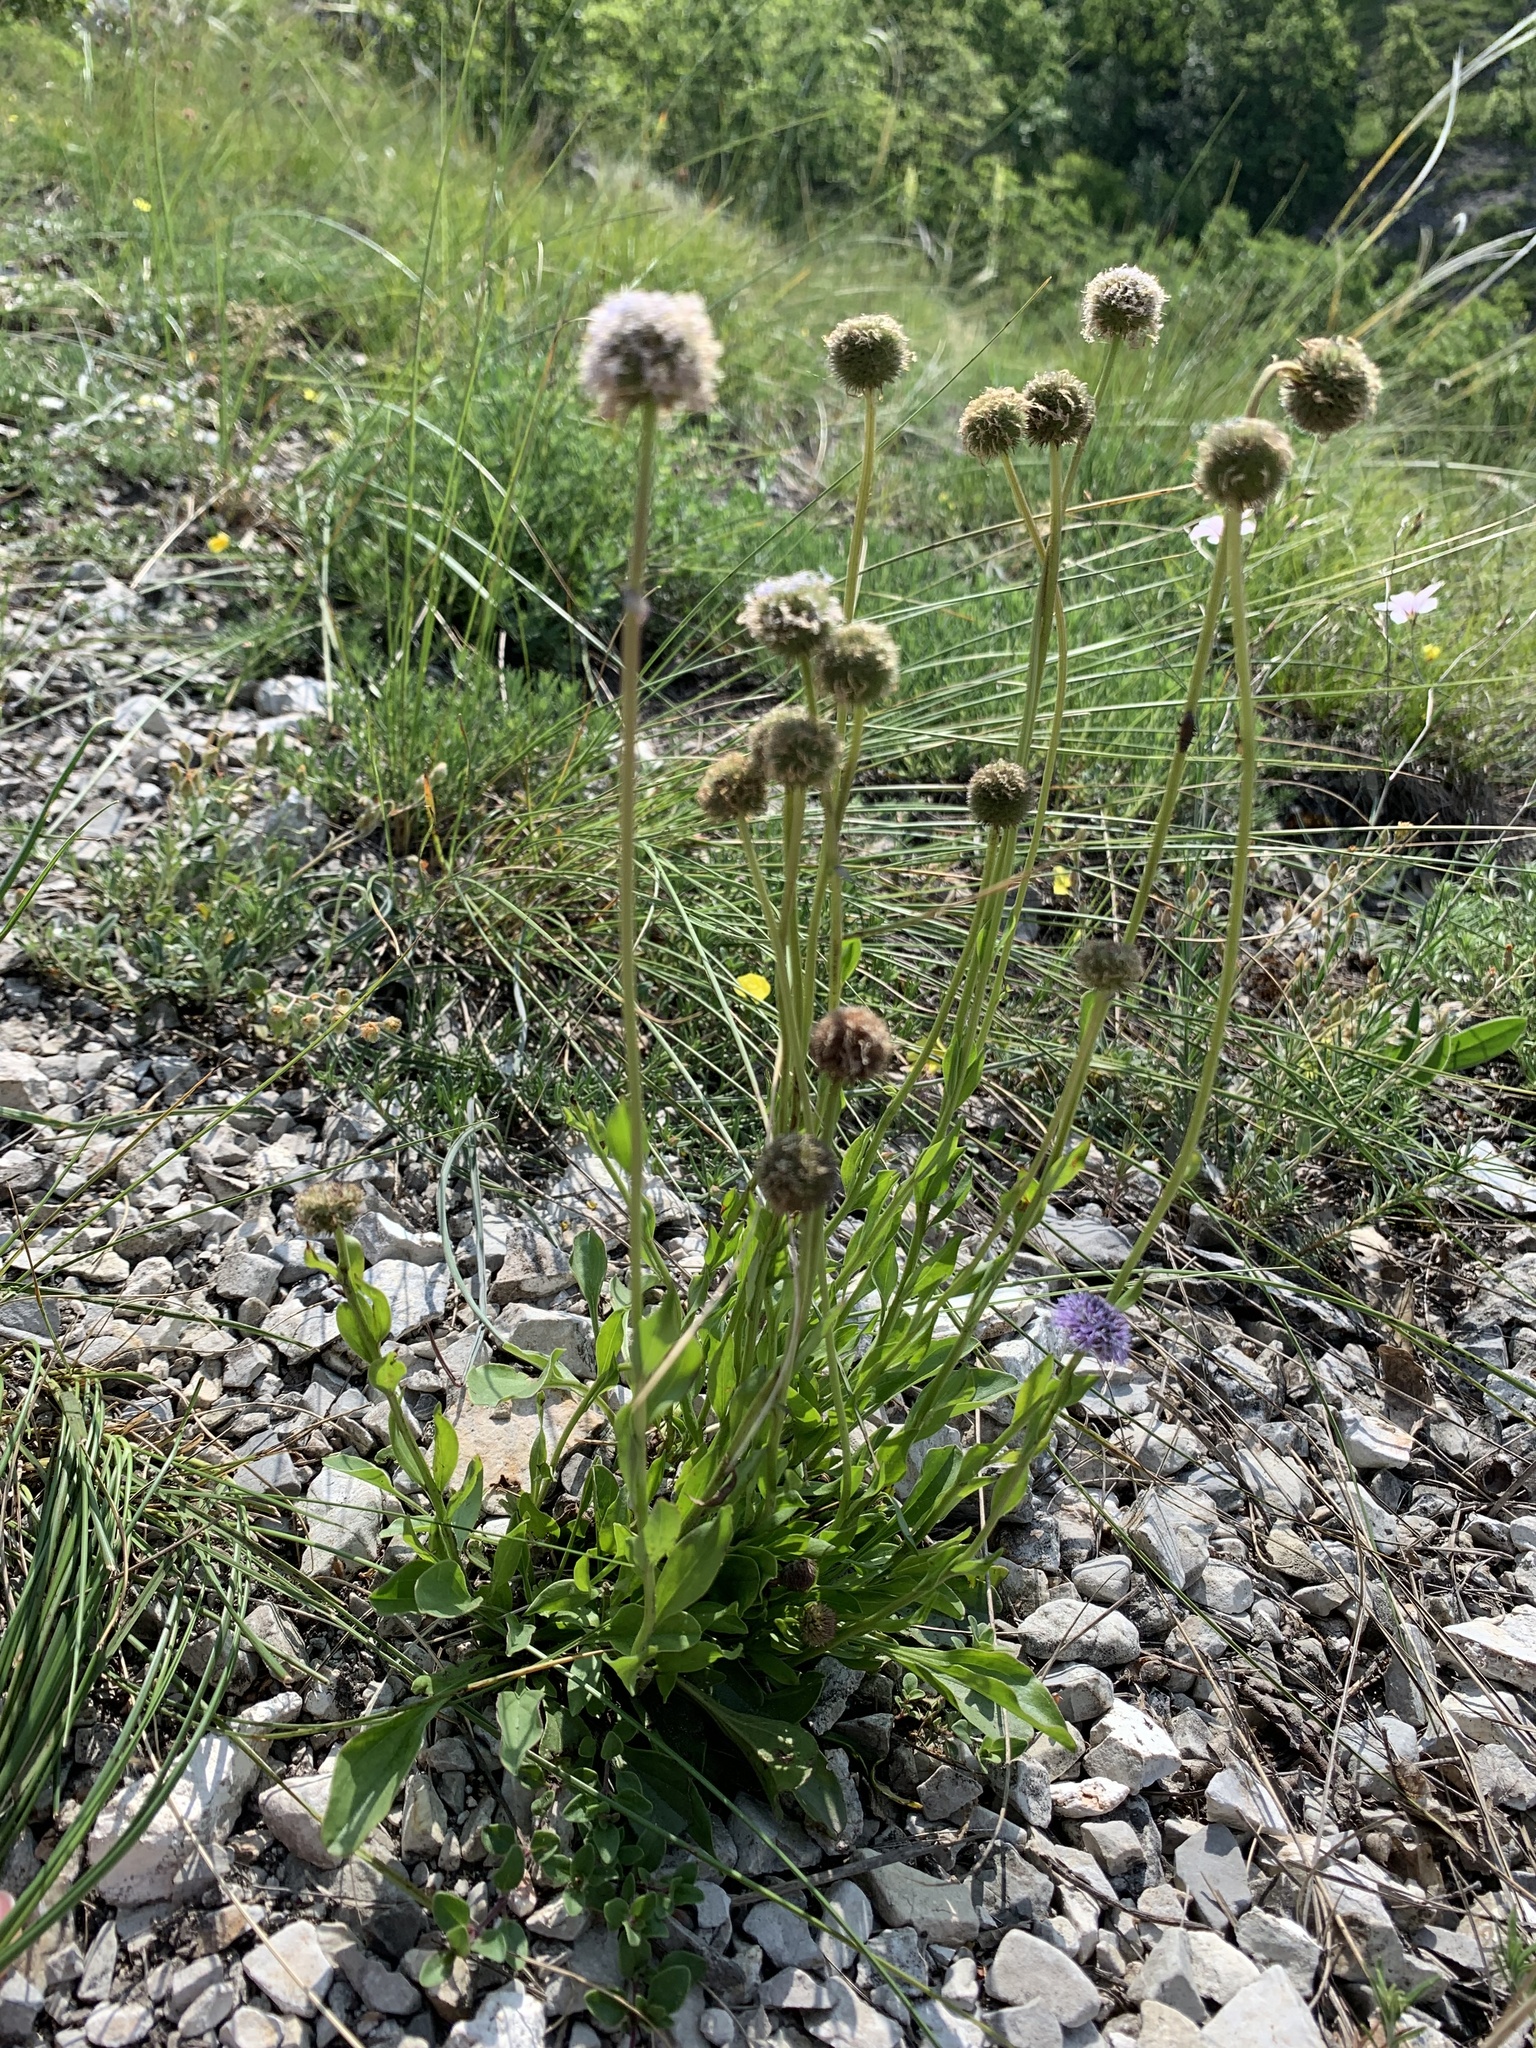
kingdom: Plantae
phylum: Tracheophyta
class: Magnoliopsida
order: Lamiales
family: Plantaginaceae
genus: Globularia
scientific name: Globularia bisnagarica
